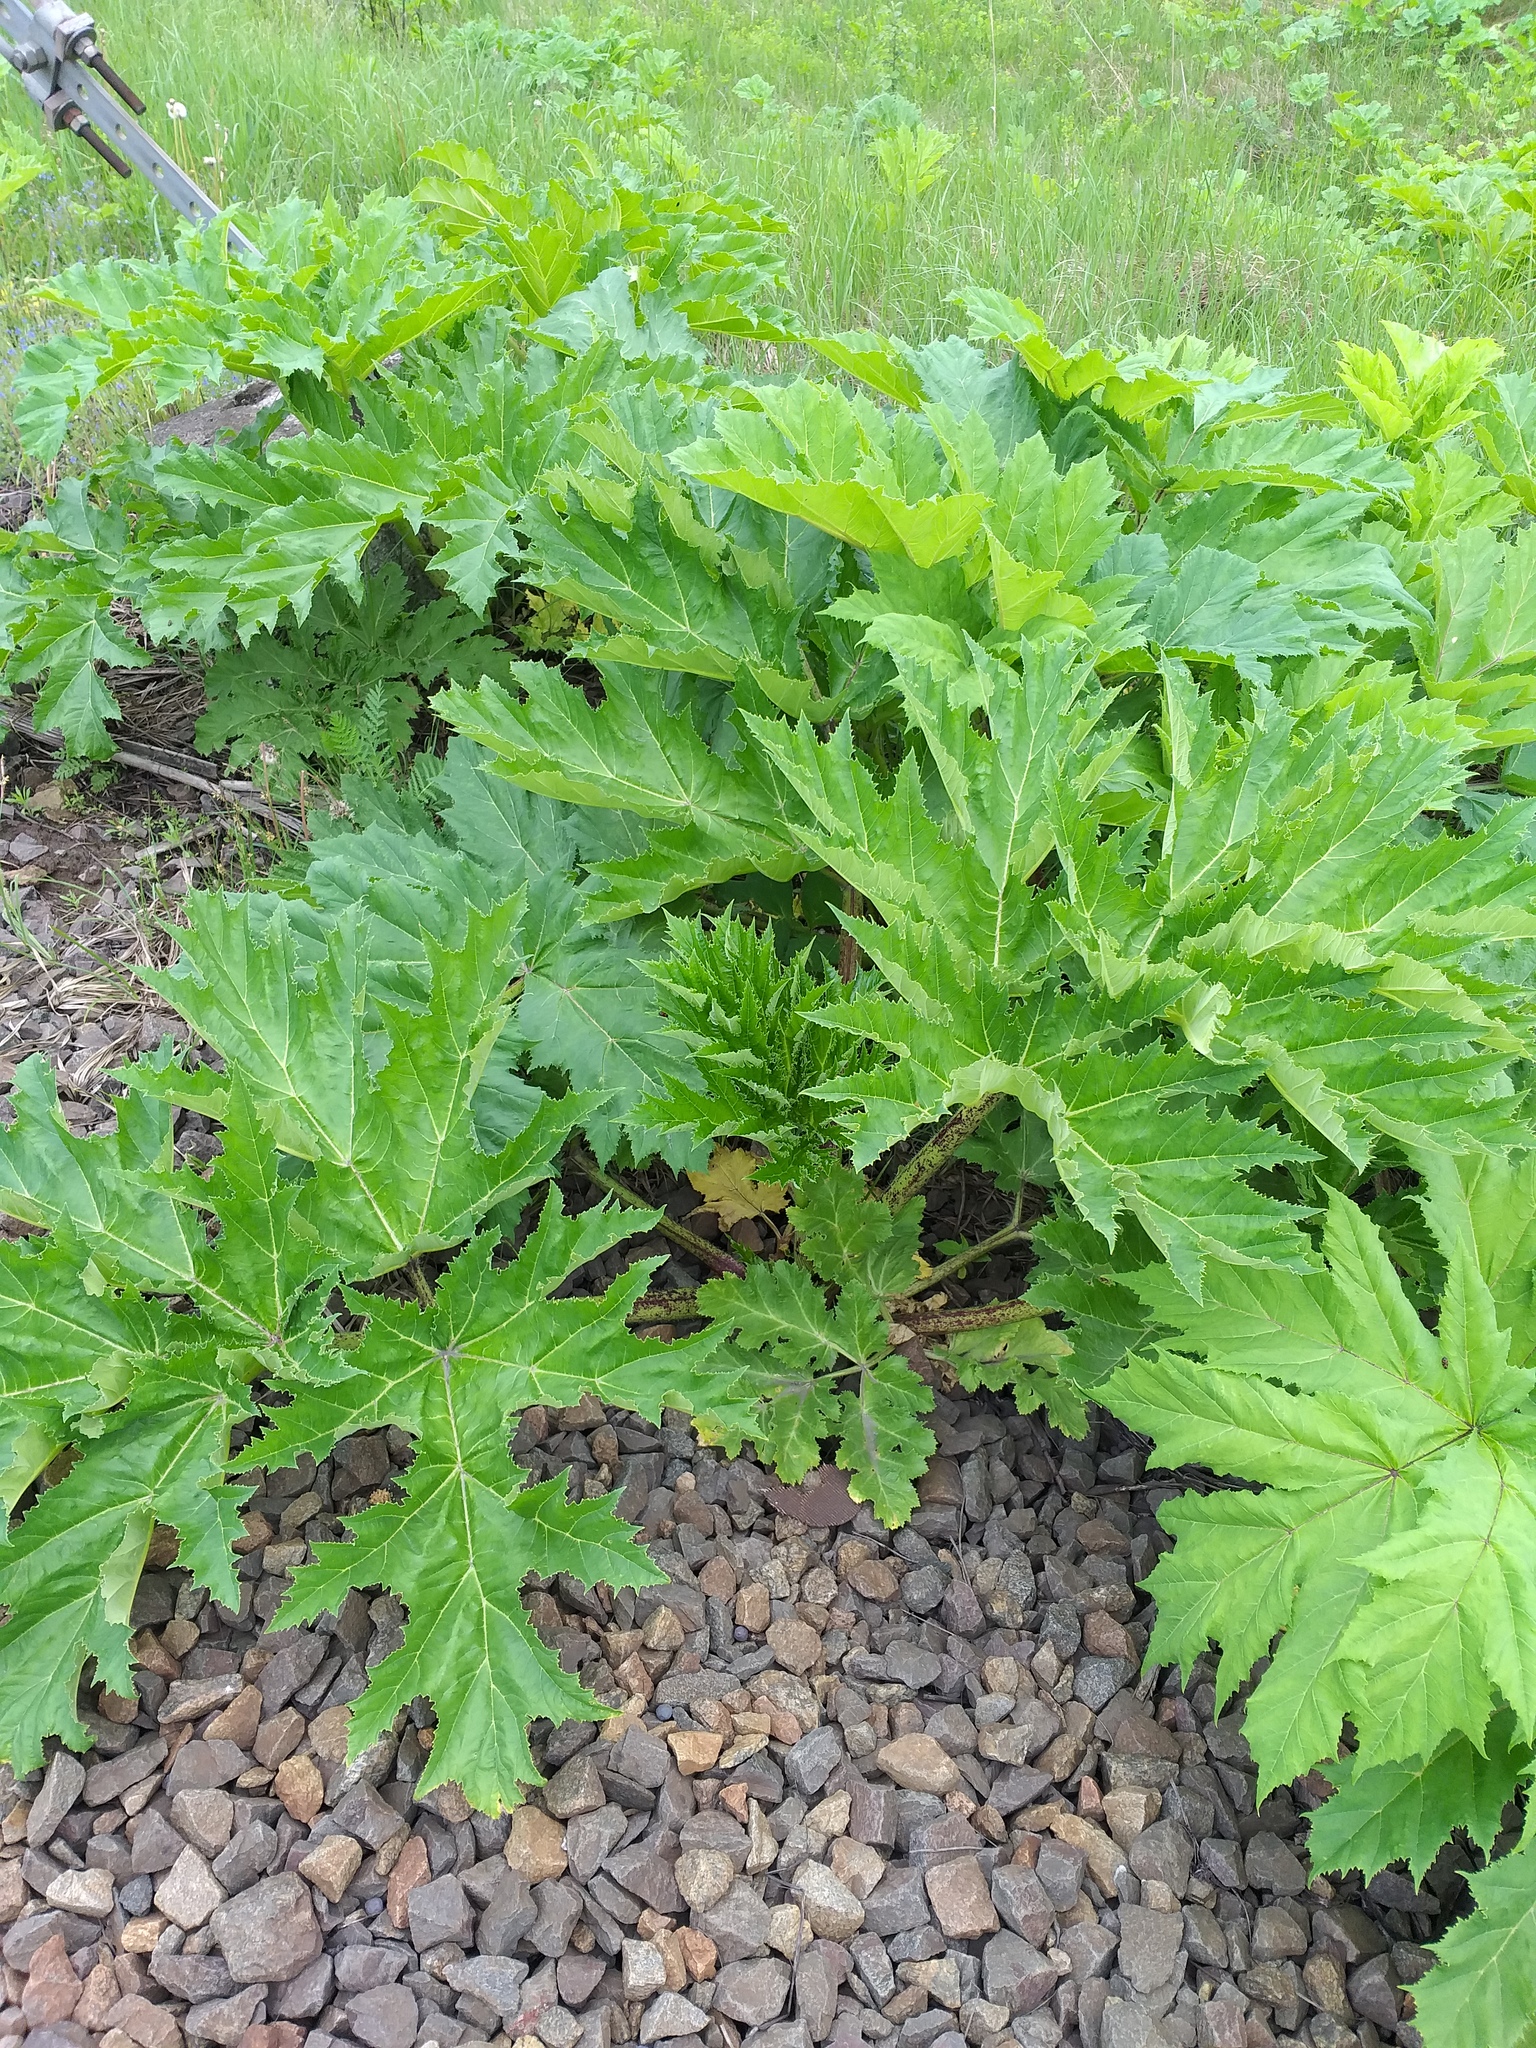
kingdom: Plantae
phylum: Tracheophyta
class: Magnoliopsida
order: Apiales
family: Apiaceae
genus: Heracleum
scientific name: Heracleum sosnowskyi
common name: Sosnowsky's hogweed
